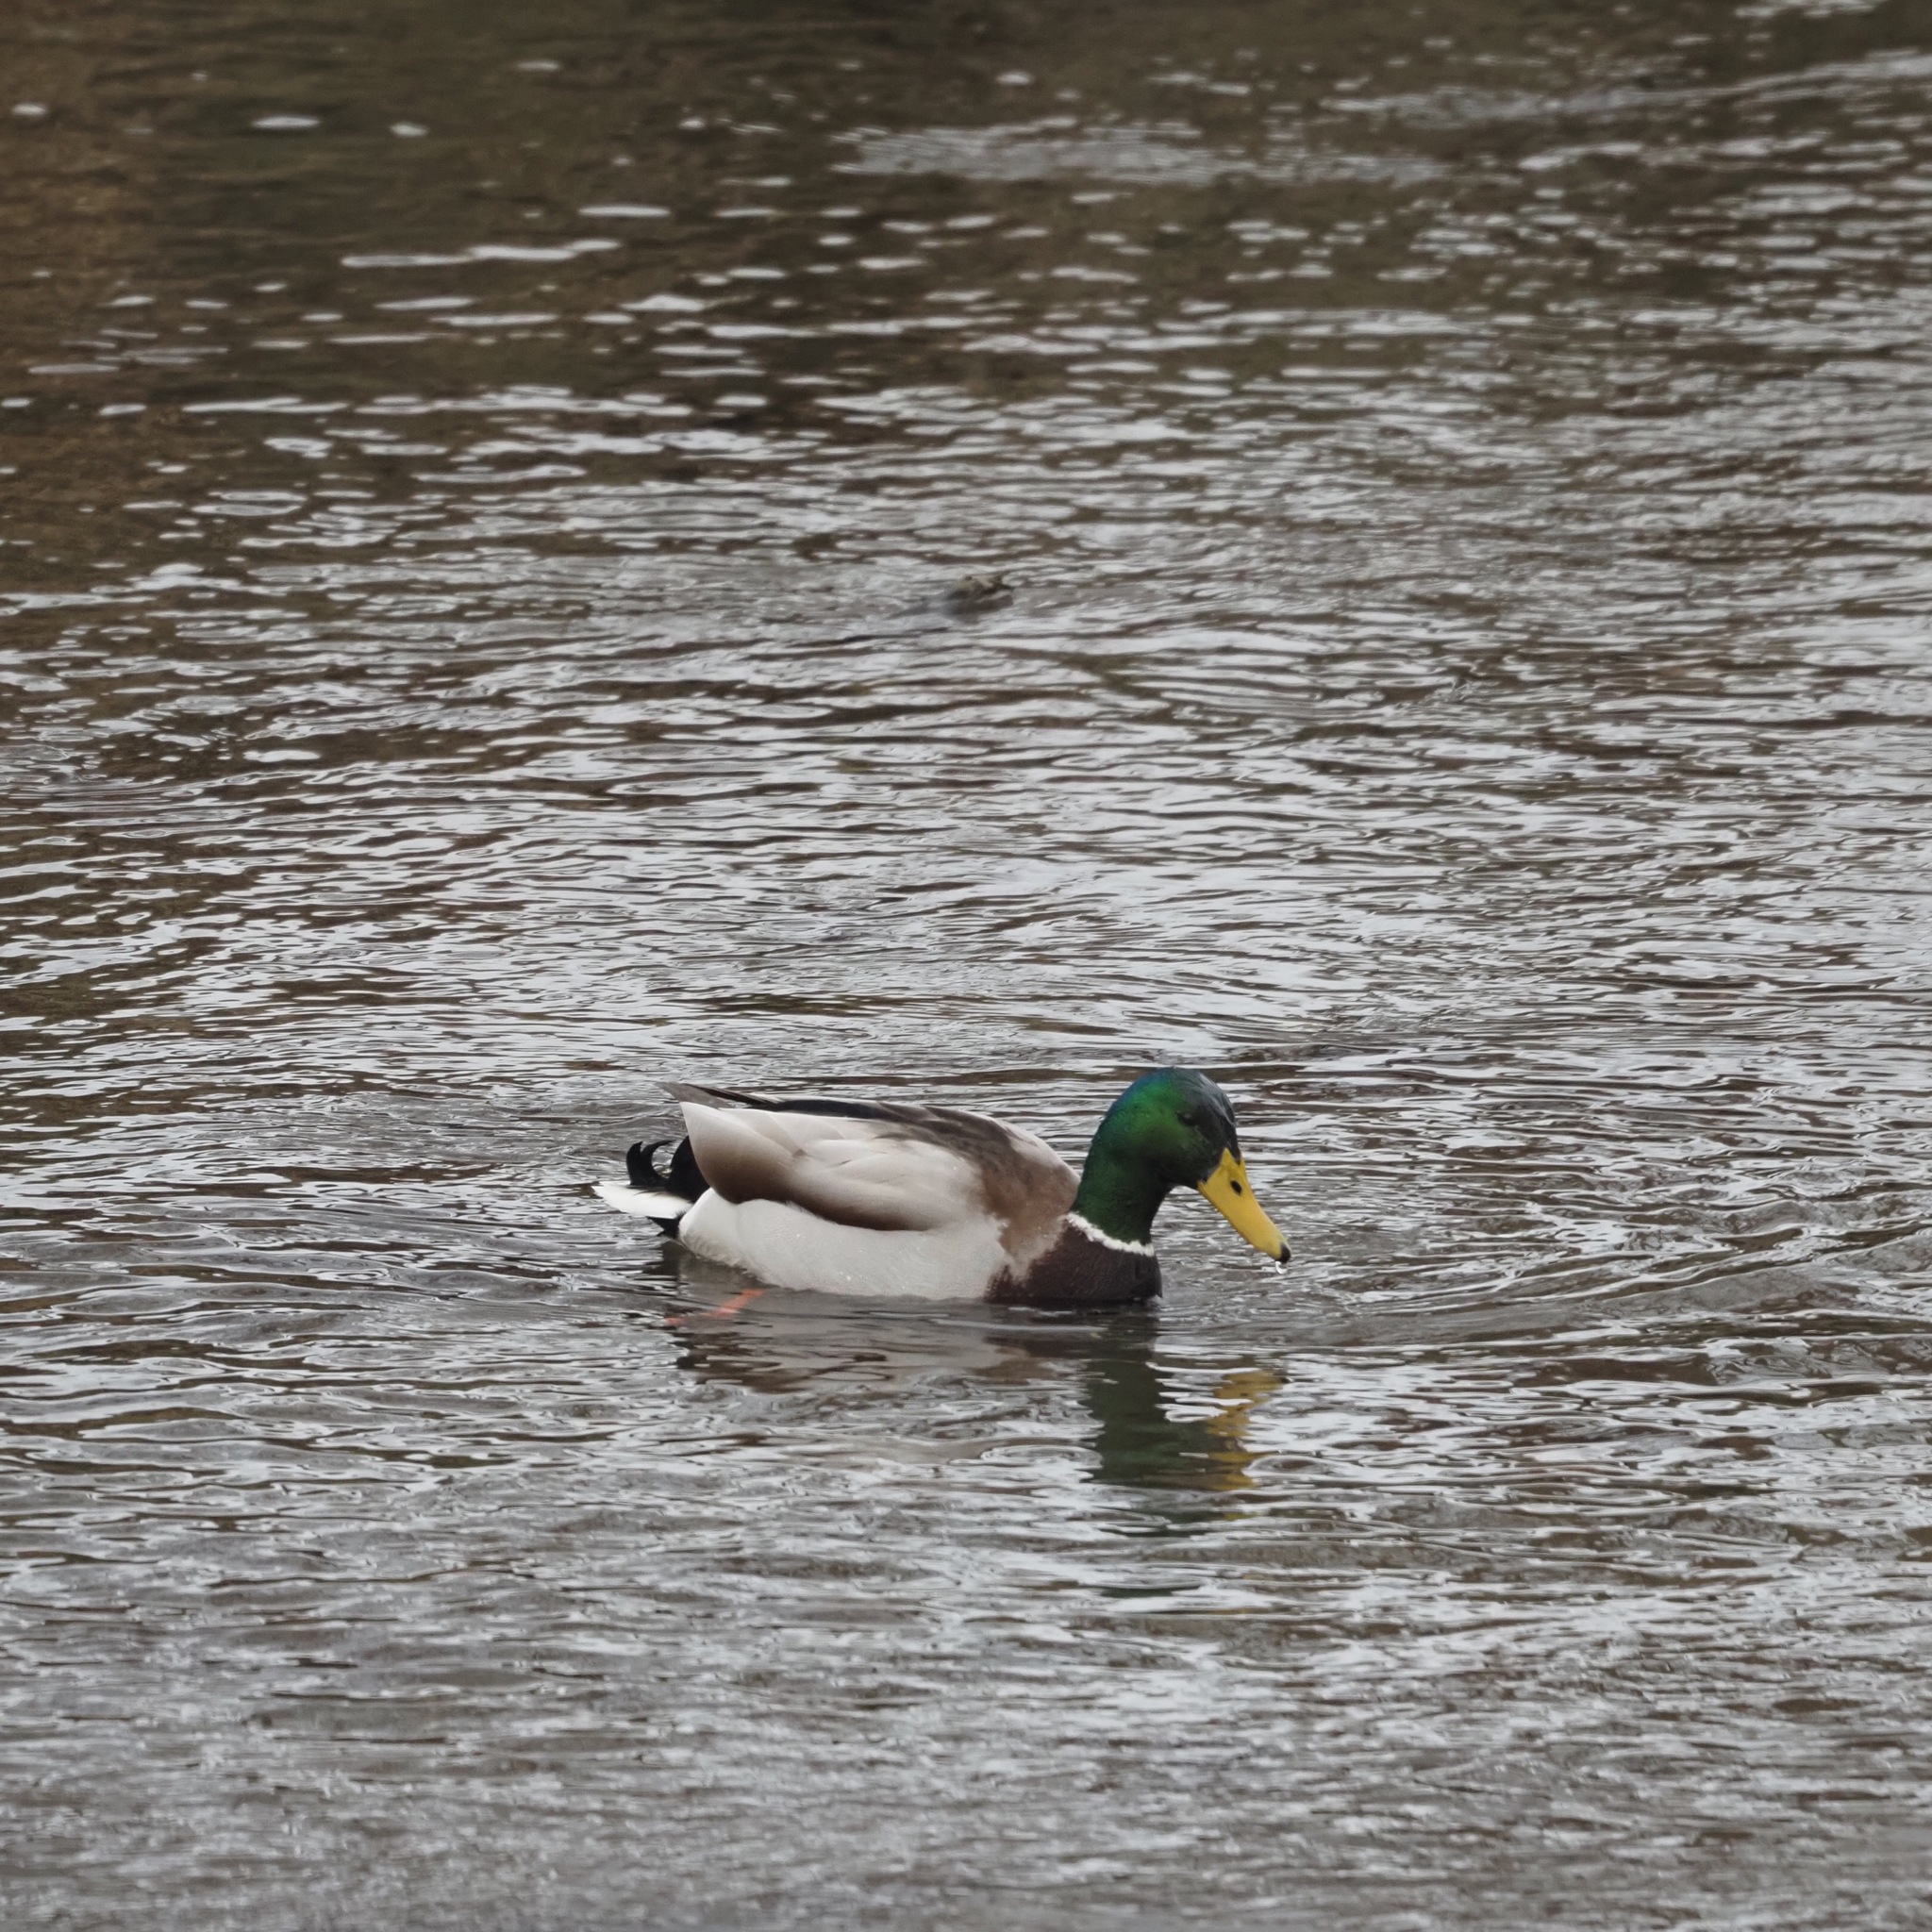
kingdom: Animalia
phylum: Chordata
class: Aves
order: Anseriformes
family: Anatidae
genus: Anas
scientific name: Anas platyrhynchos
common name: Mallard
